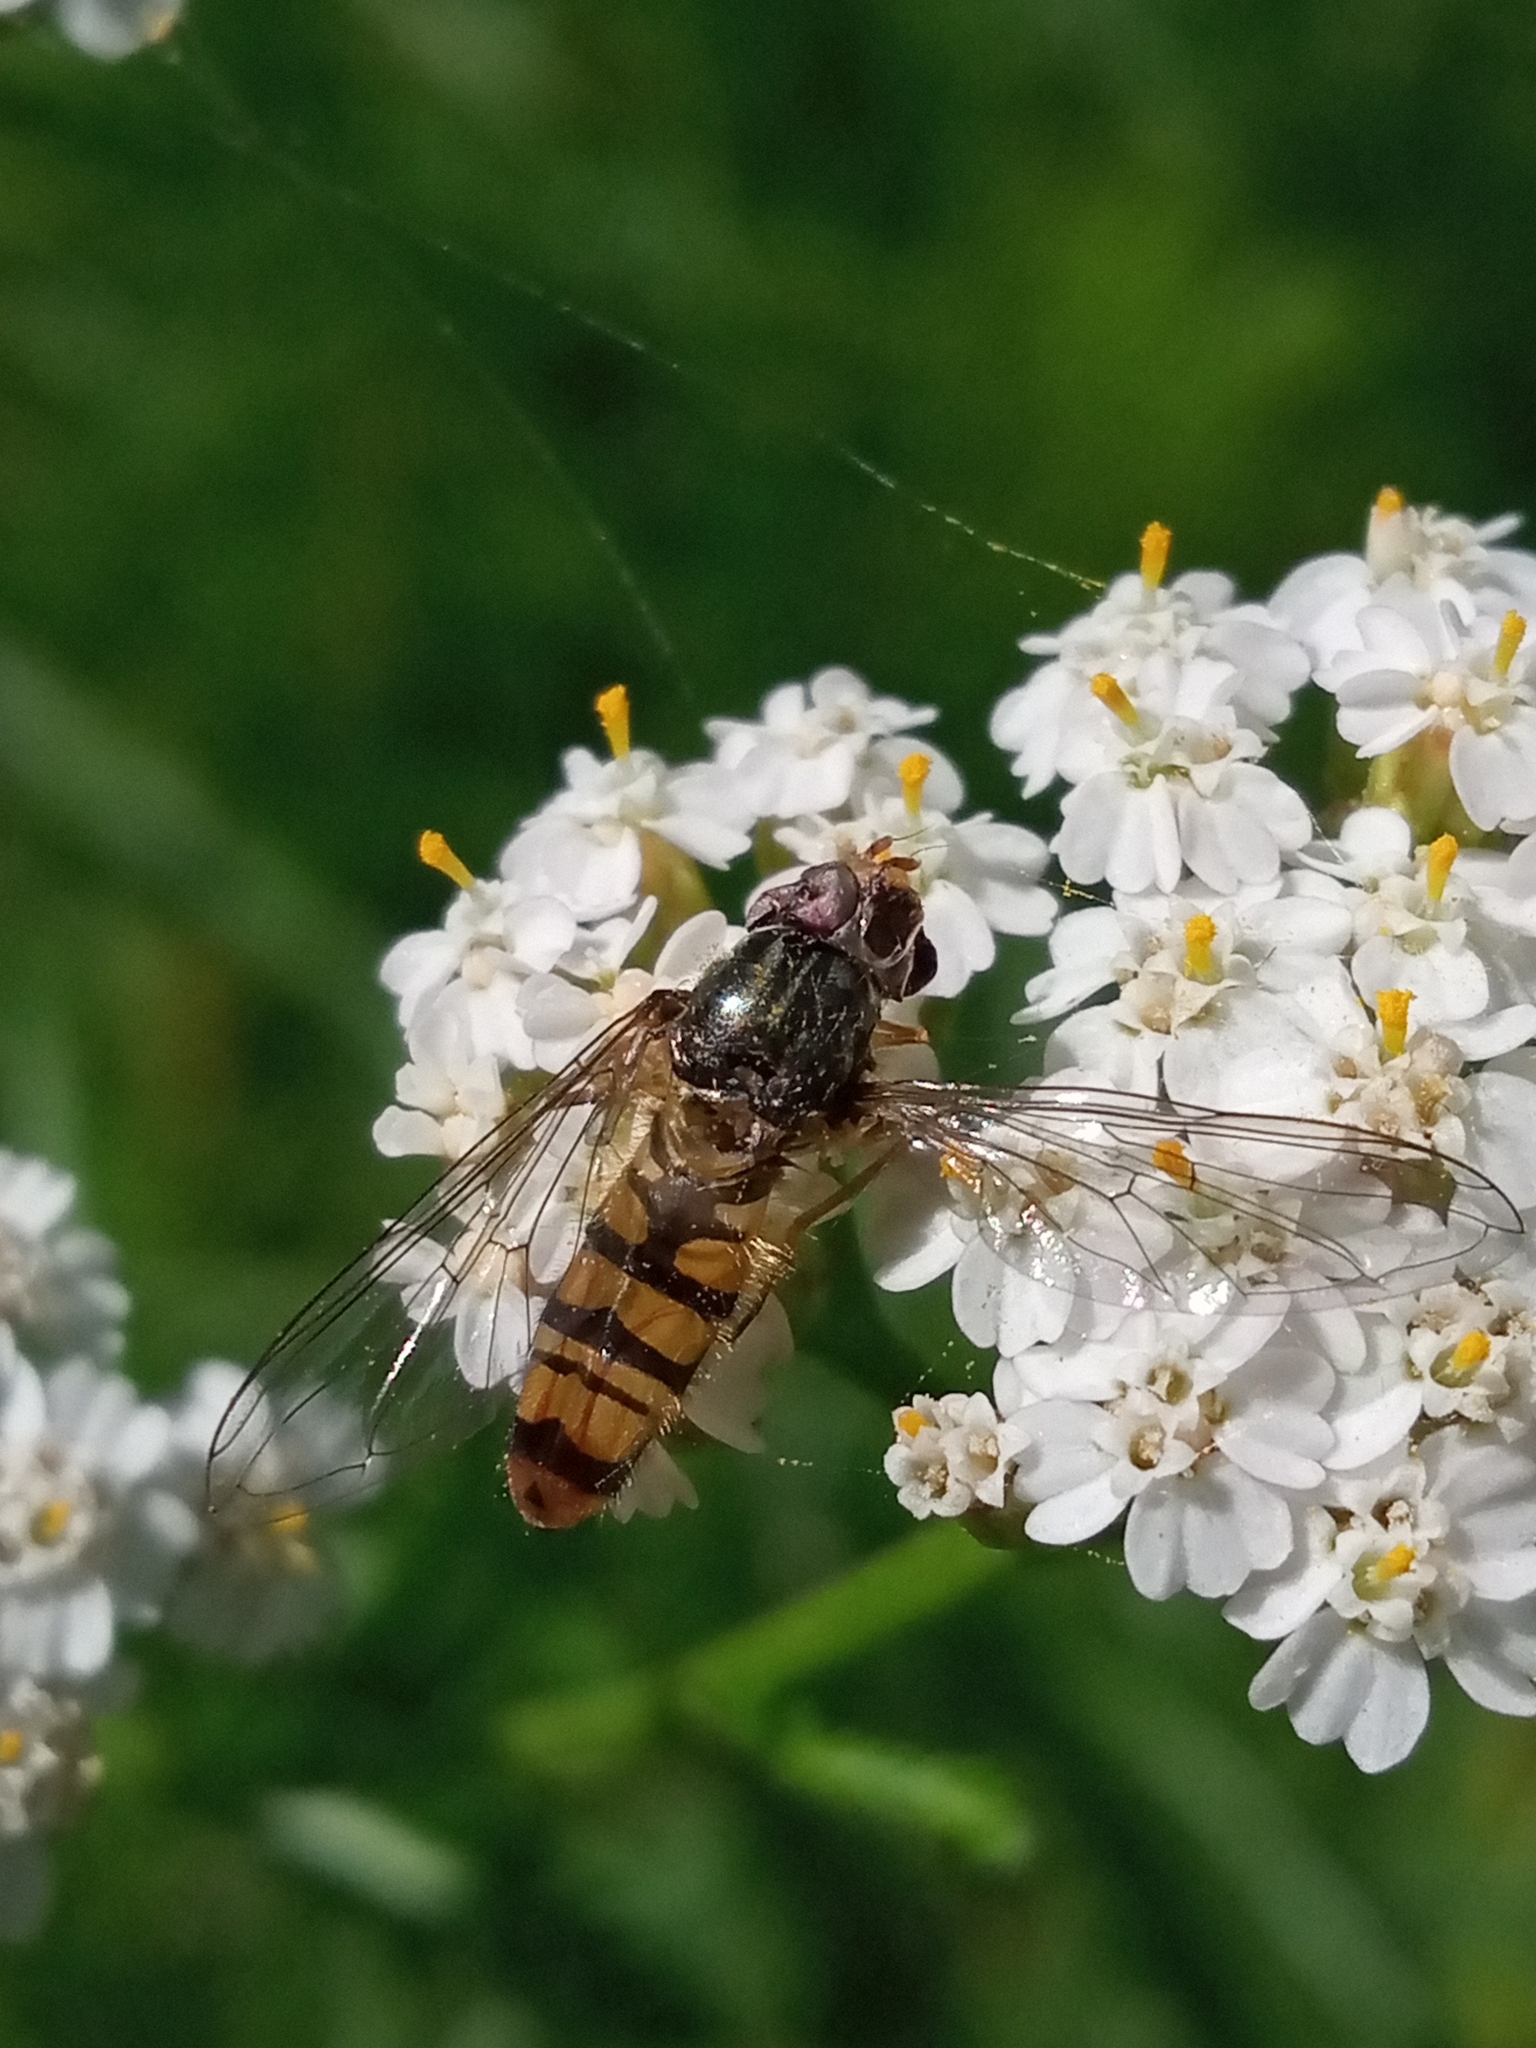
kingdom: Animalia
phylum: Arthropoda
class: Insecta
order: Diptera
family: Syrphidae
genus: Episyrphus
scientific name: Episyrphus balteatus
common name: Marmalade hoverfly
